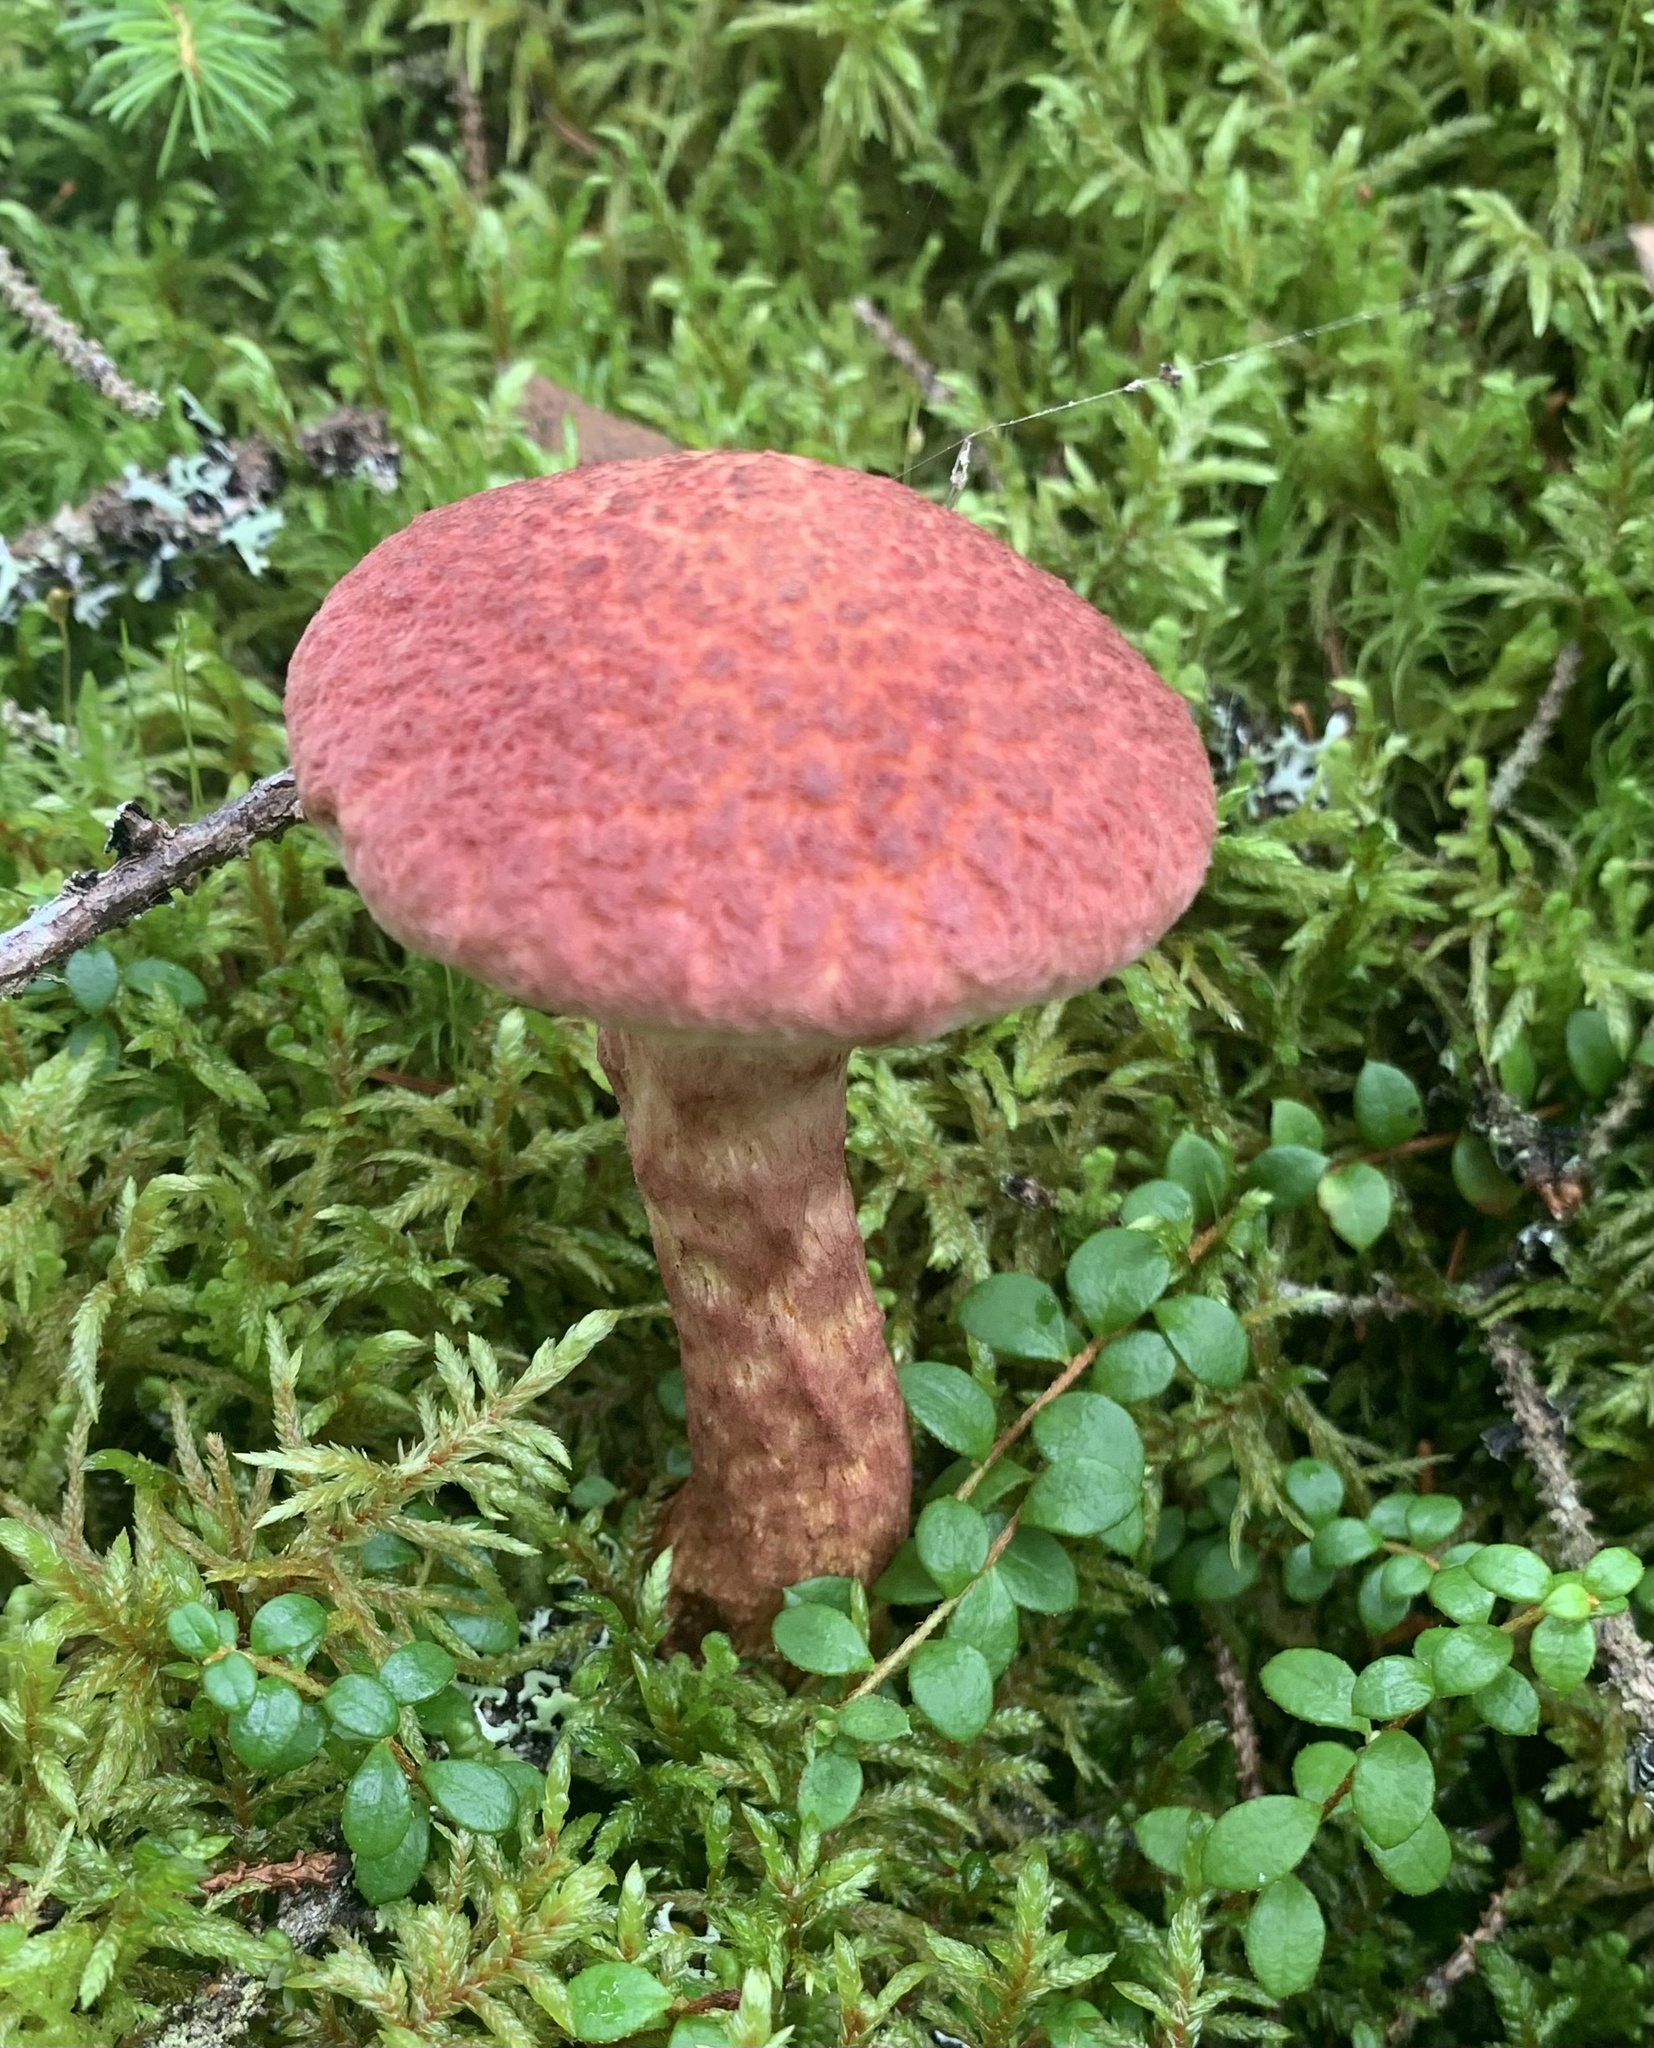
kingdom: Fungi
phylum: Basidiomycota
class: Agaricomycetes
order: Boletales
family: Suillaceae
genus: Suillus
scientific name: Suillus spraguei
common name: Painted suillus
